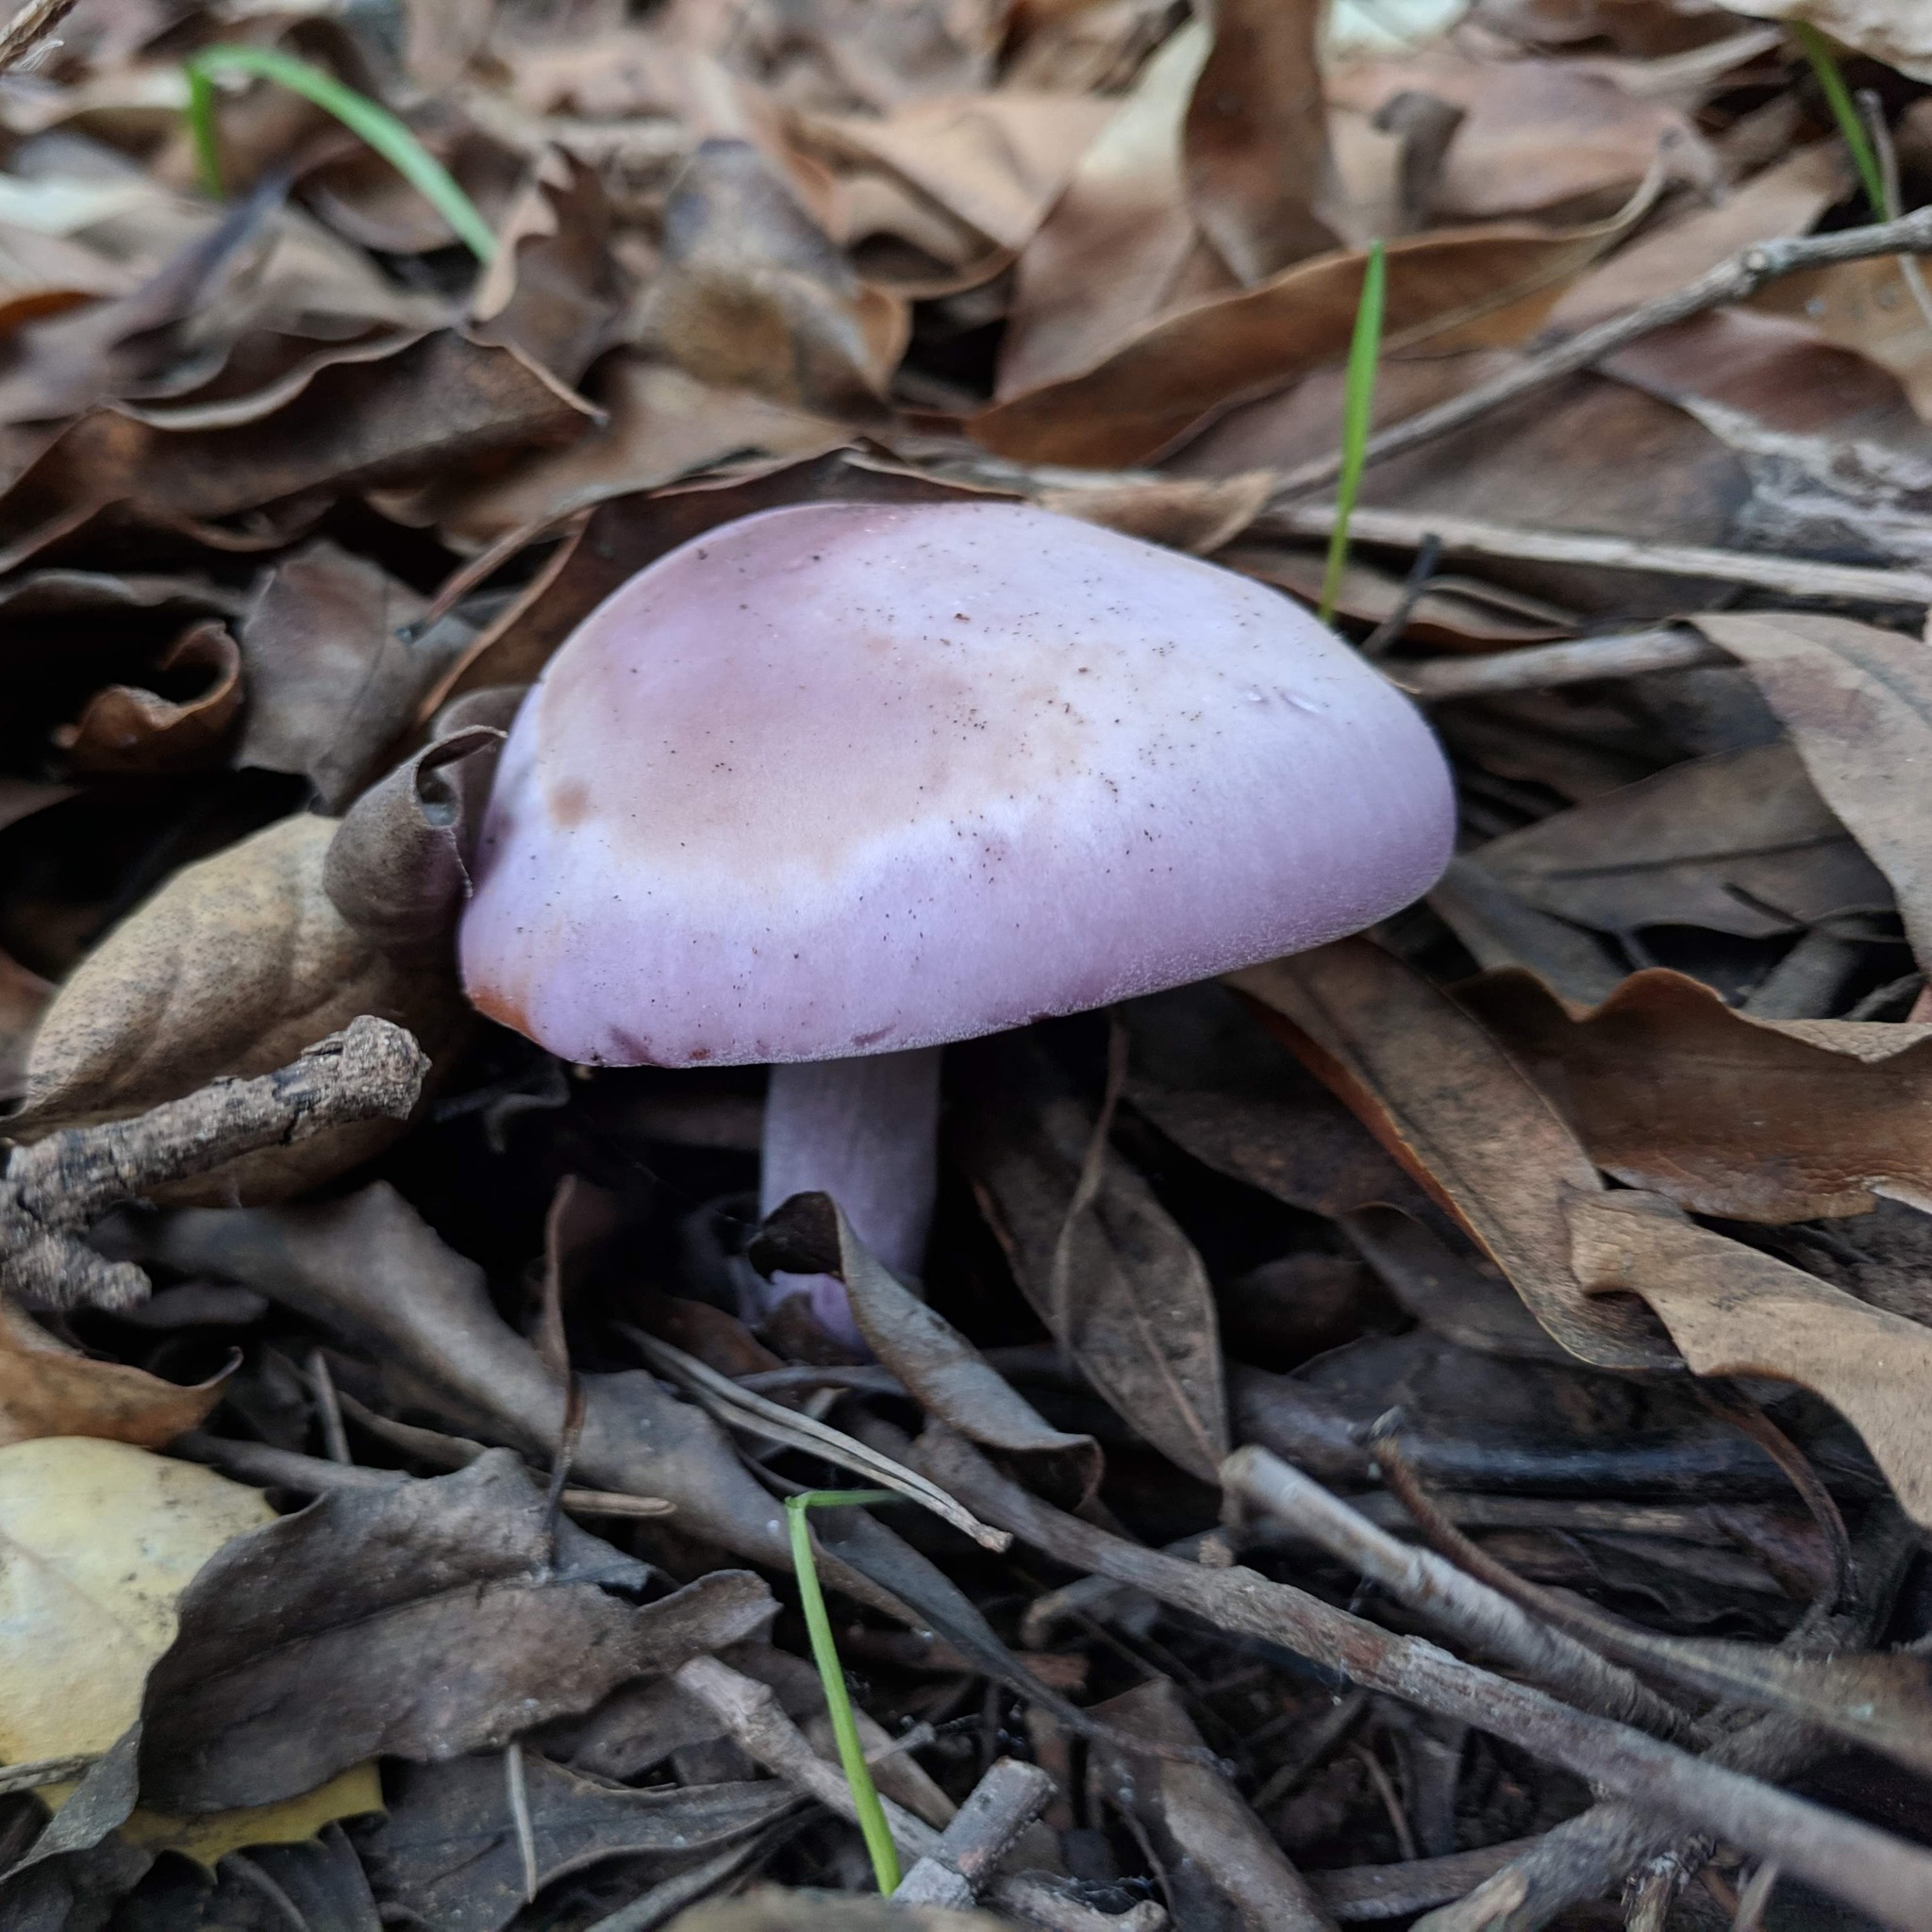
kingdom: Fungi
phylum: Basidiomycota
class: Agaricomycetes
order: Agaricales
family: Tricholomataceae
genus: Collybia
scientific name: Collybia
